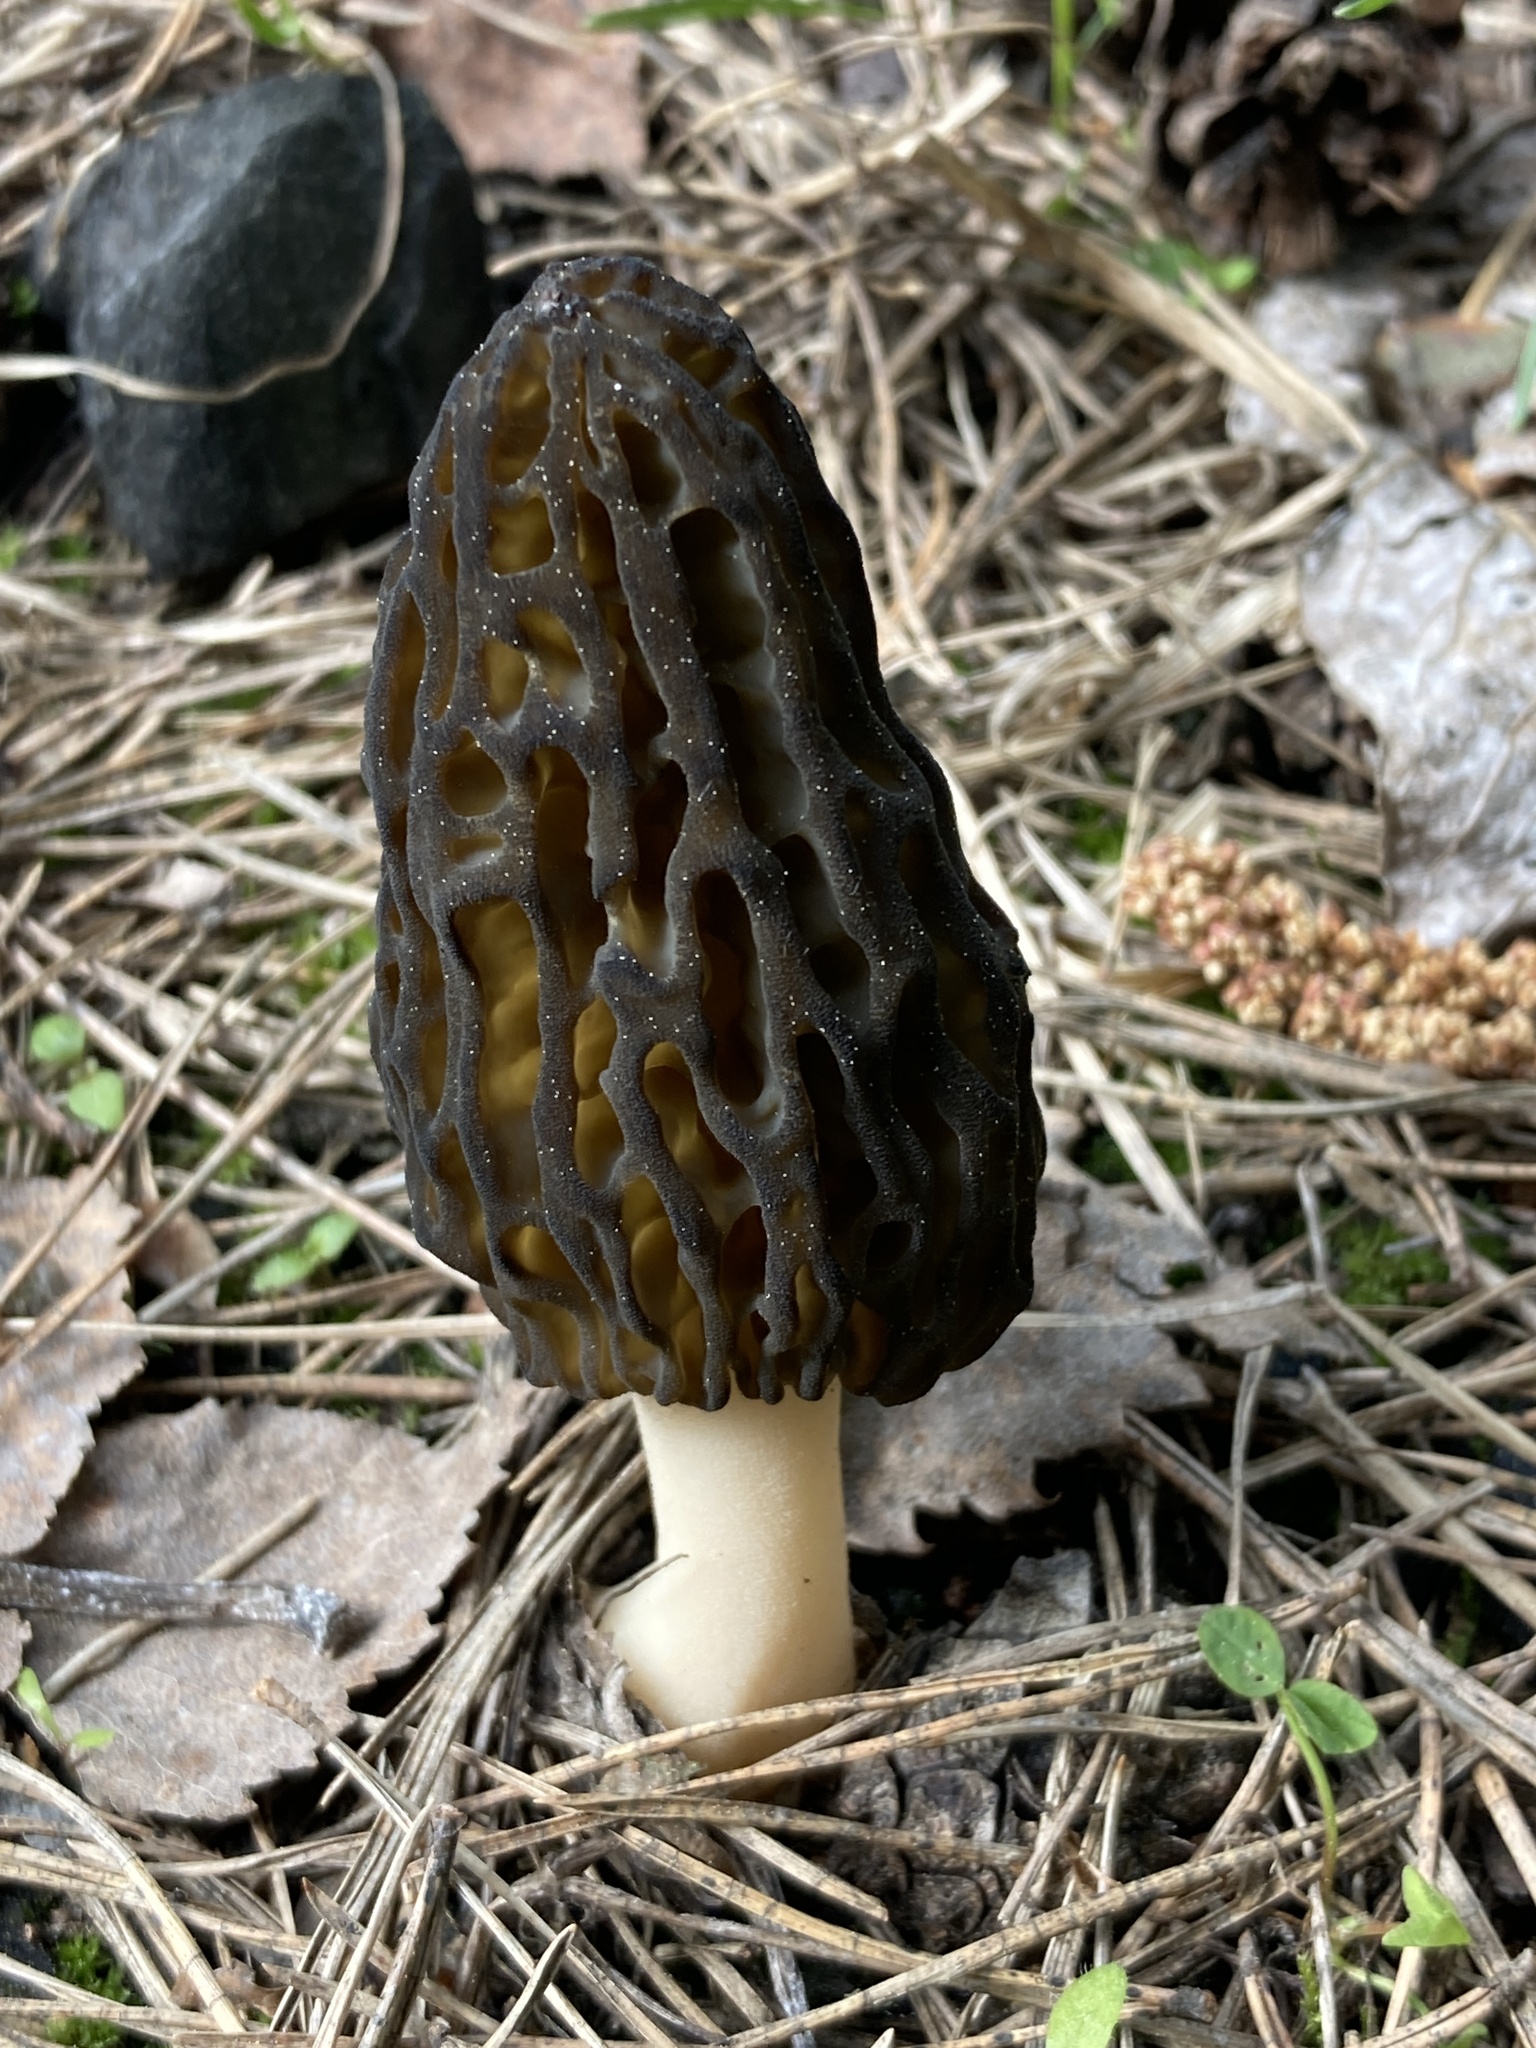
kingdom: Fungi
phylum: Ascomycota
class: Pezizomycetes
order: Pezizales
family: Morchellaceae
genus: Morchella
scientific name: Morchella
